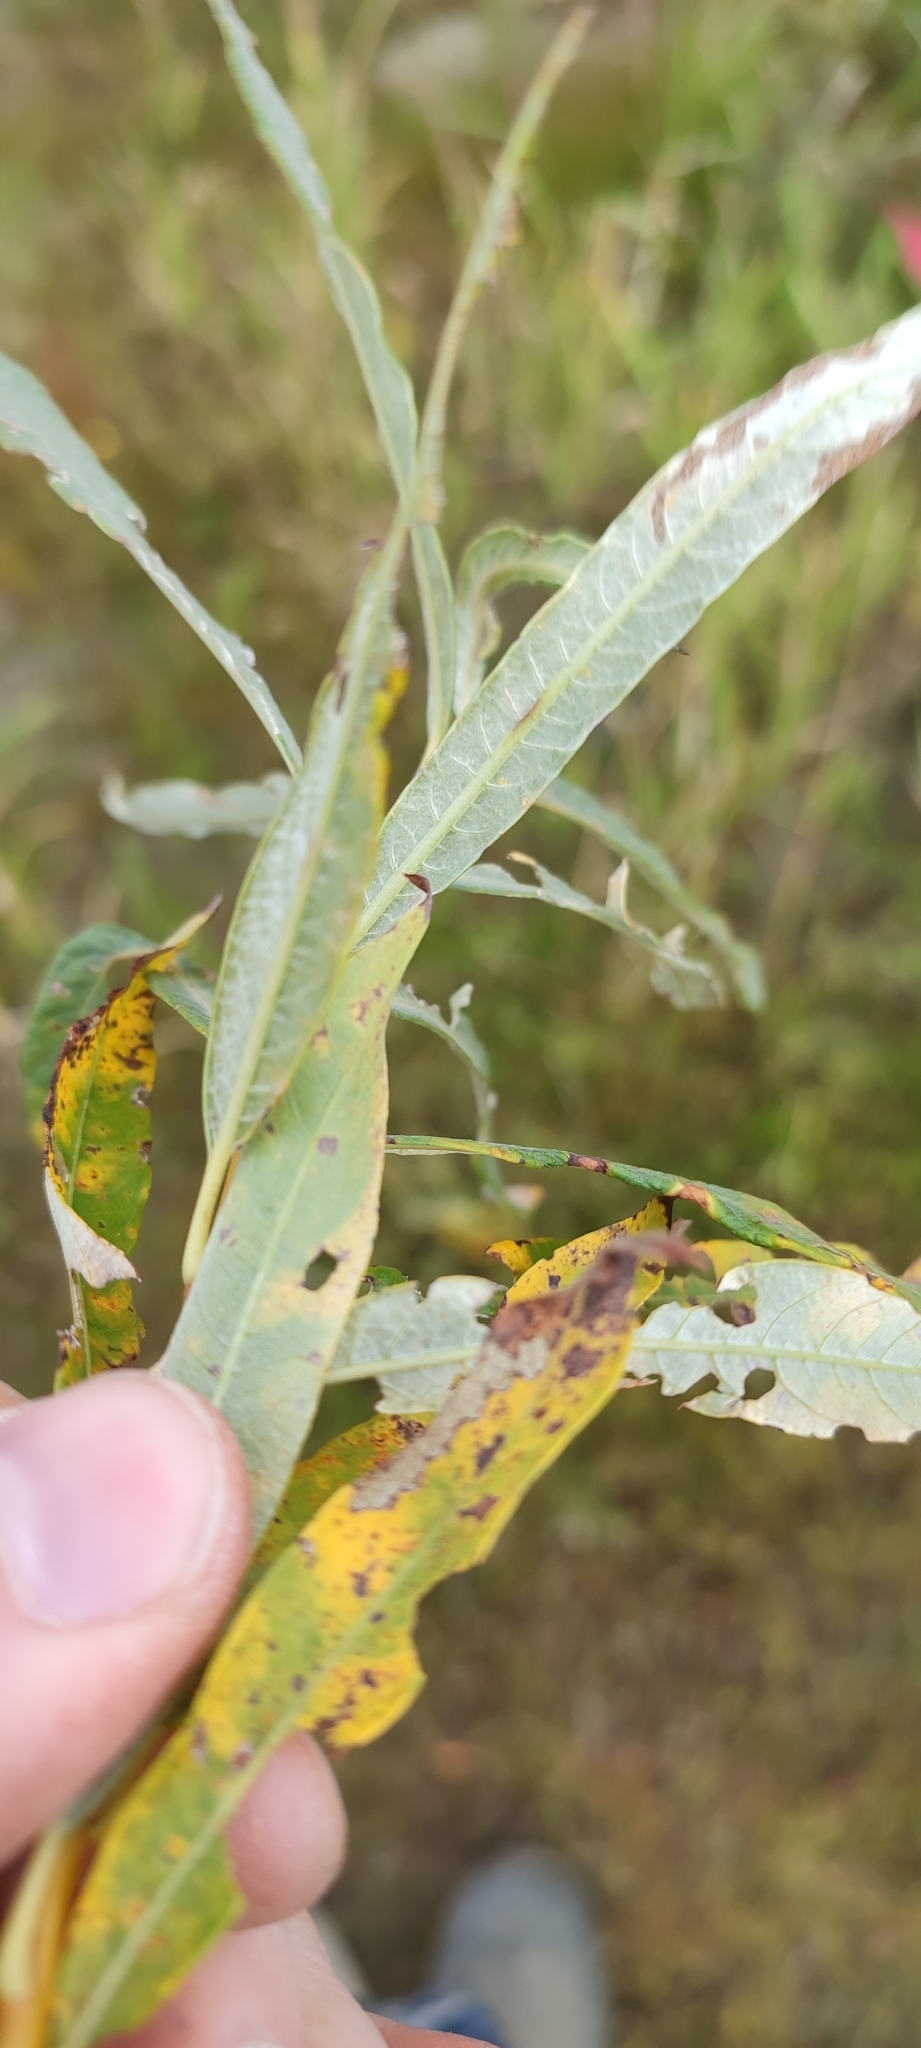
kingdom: Plantae
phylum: Tracheophyta
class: Magnoliopsida
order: Malpighiales
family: Salicaceae
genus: Salix
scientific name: Salix viminalis
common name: Osier
